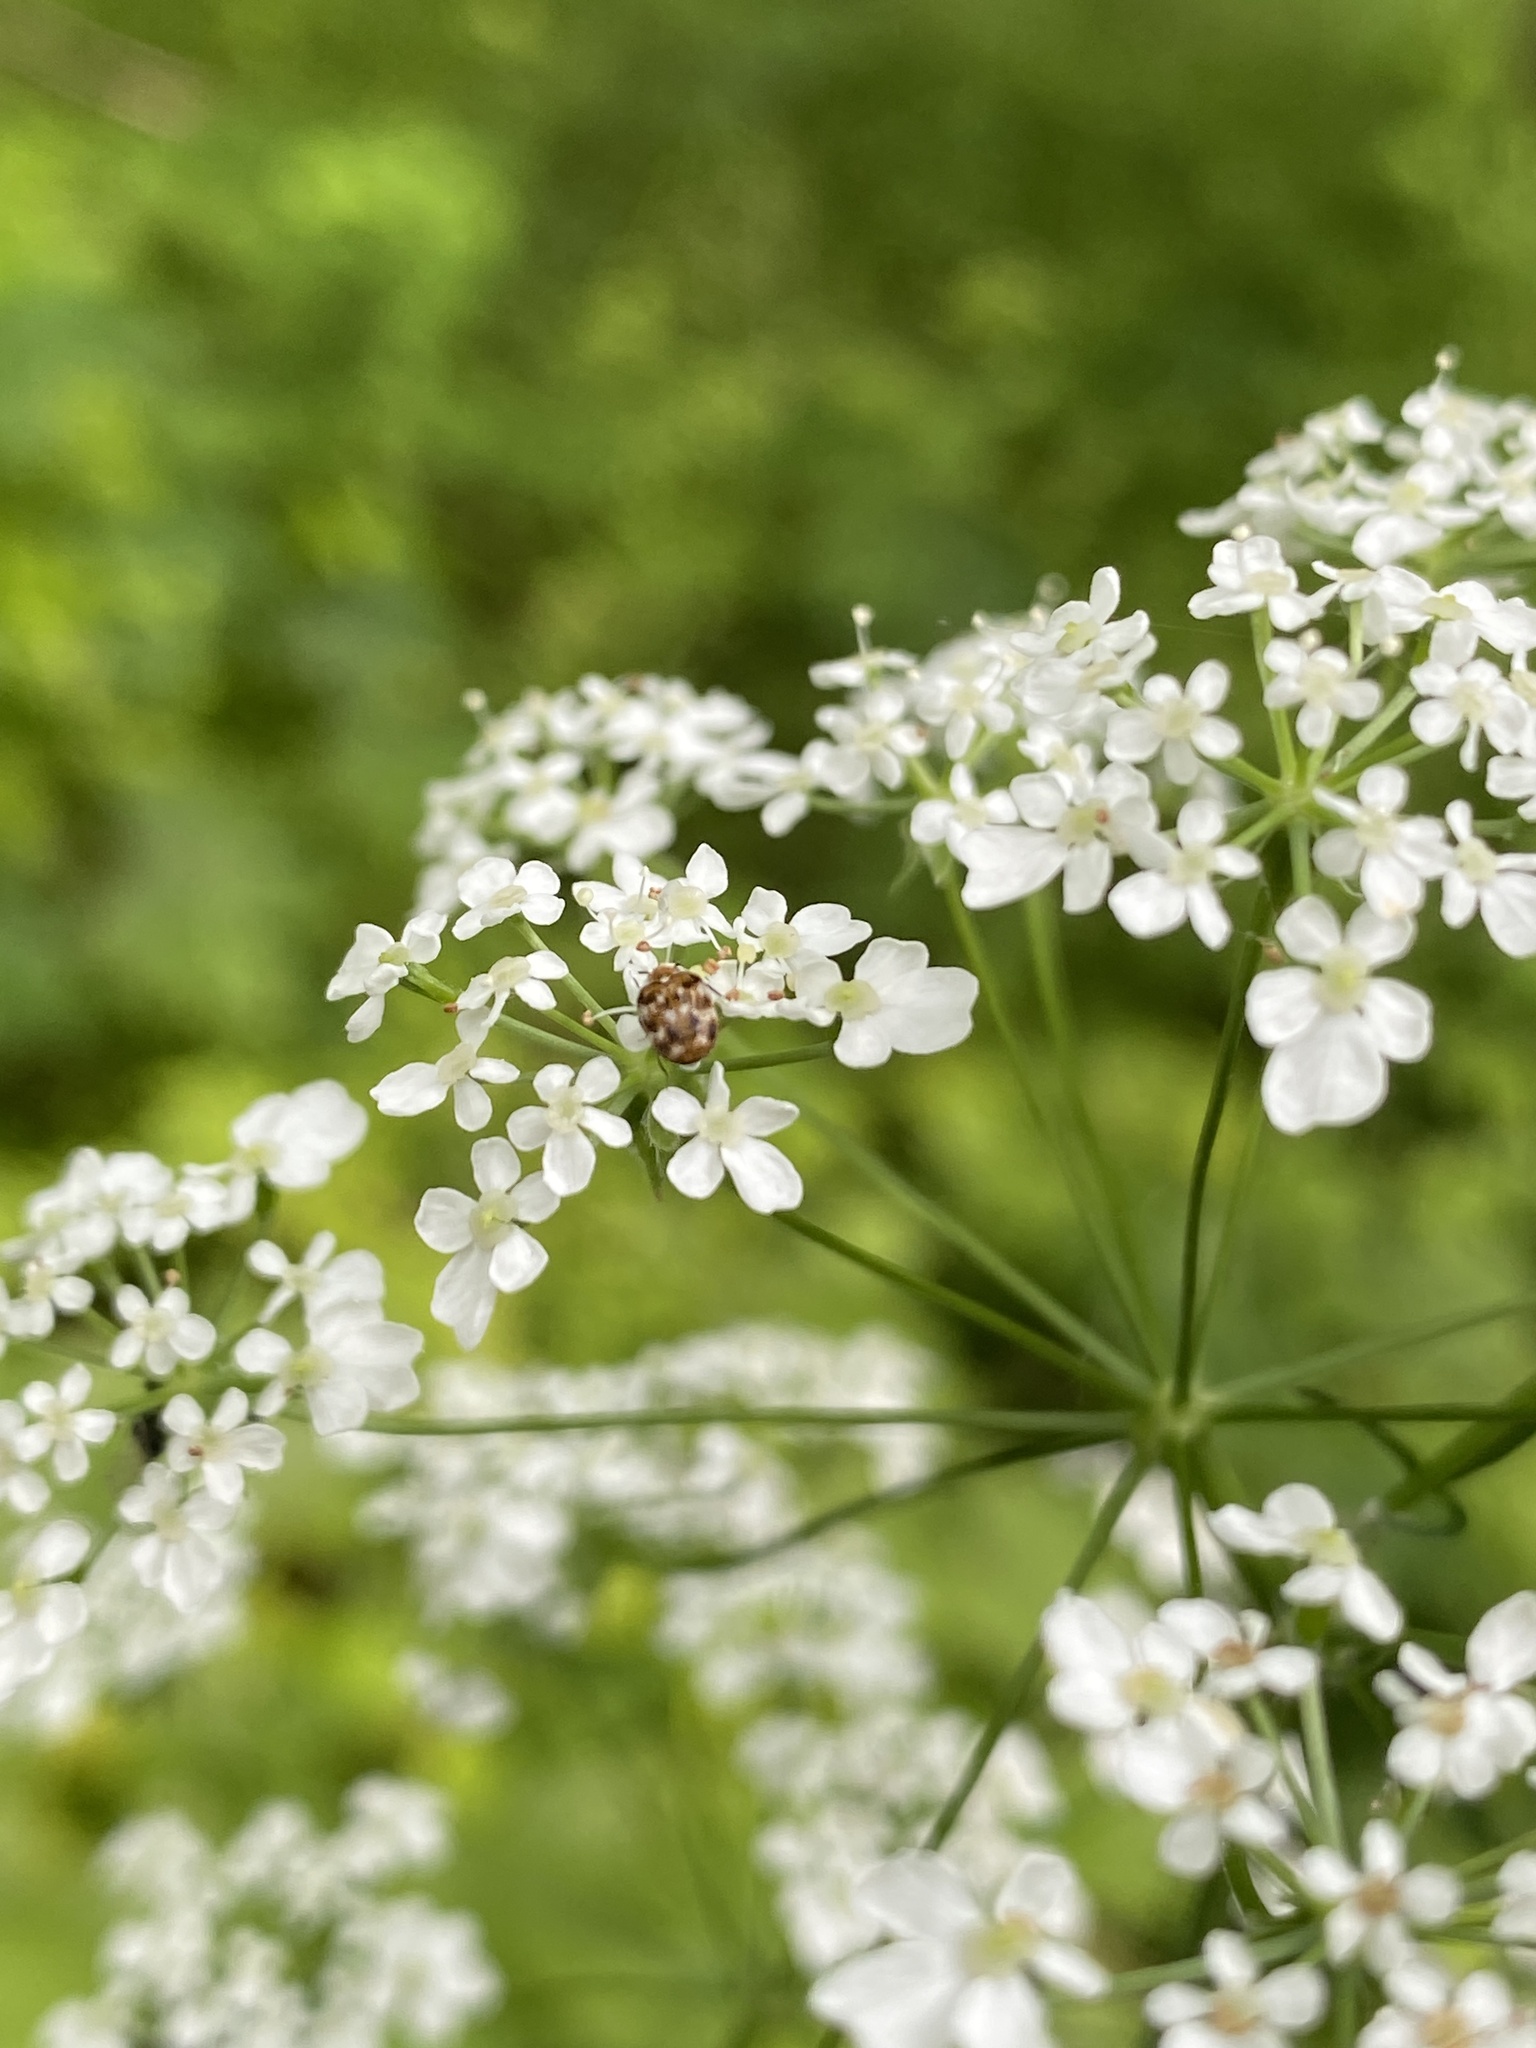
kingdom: Animalia
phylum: Arthropoda
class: Insecta
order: Coleoptera
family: Dermestidae
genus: Anthrenus
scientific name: Anthrenus verbasci
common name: Varied carpet beetle
